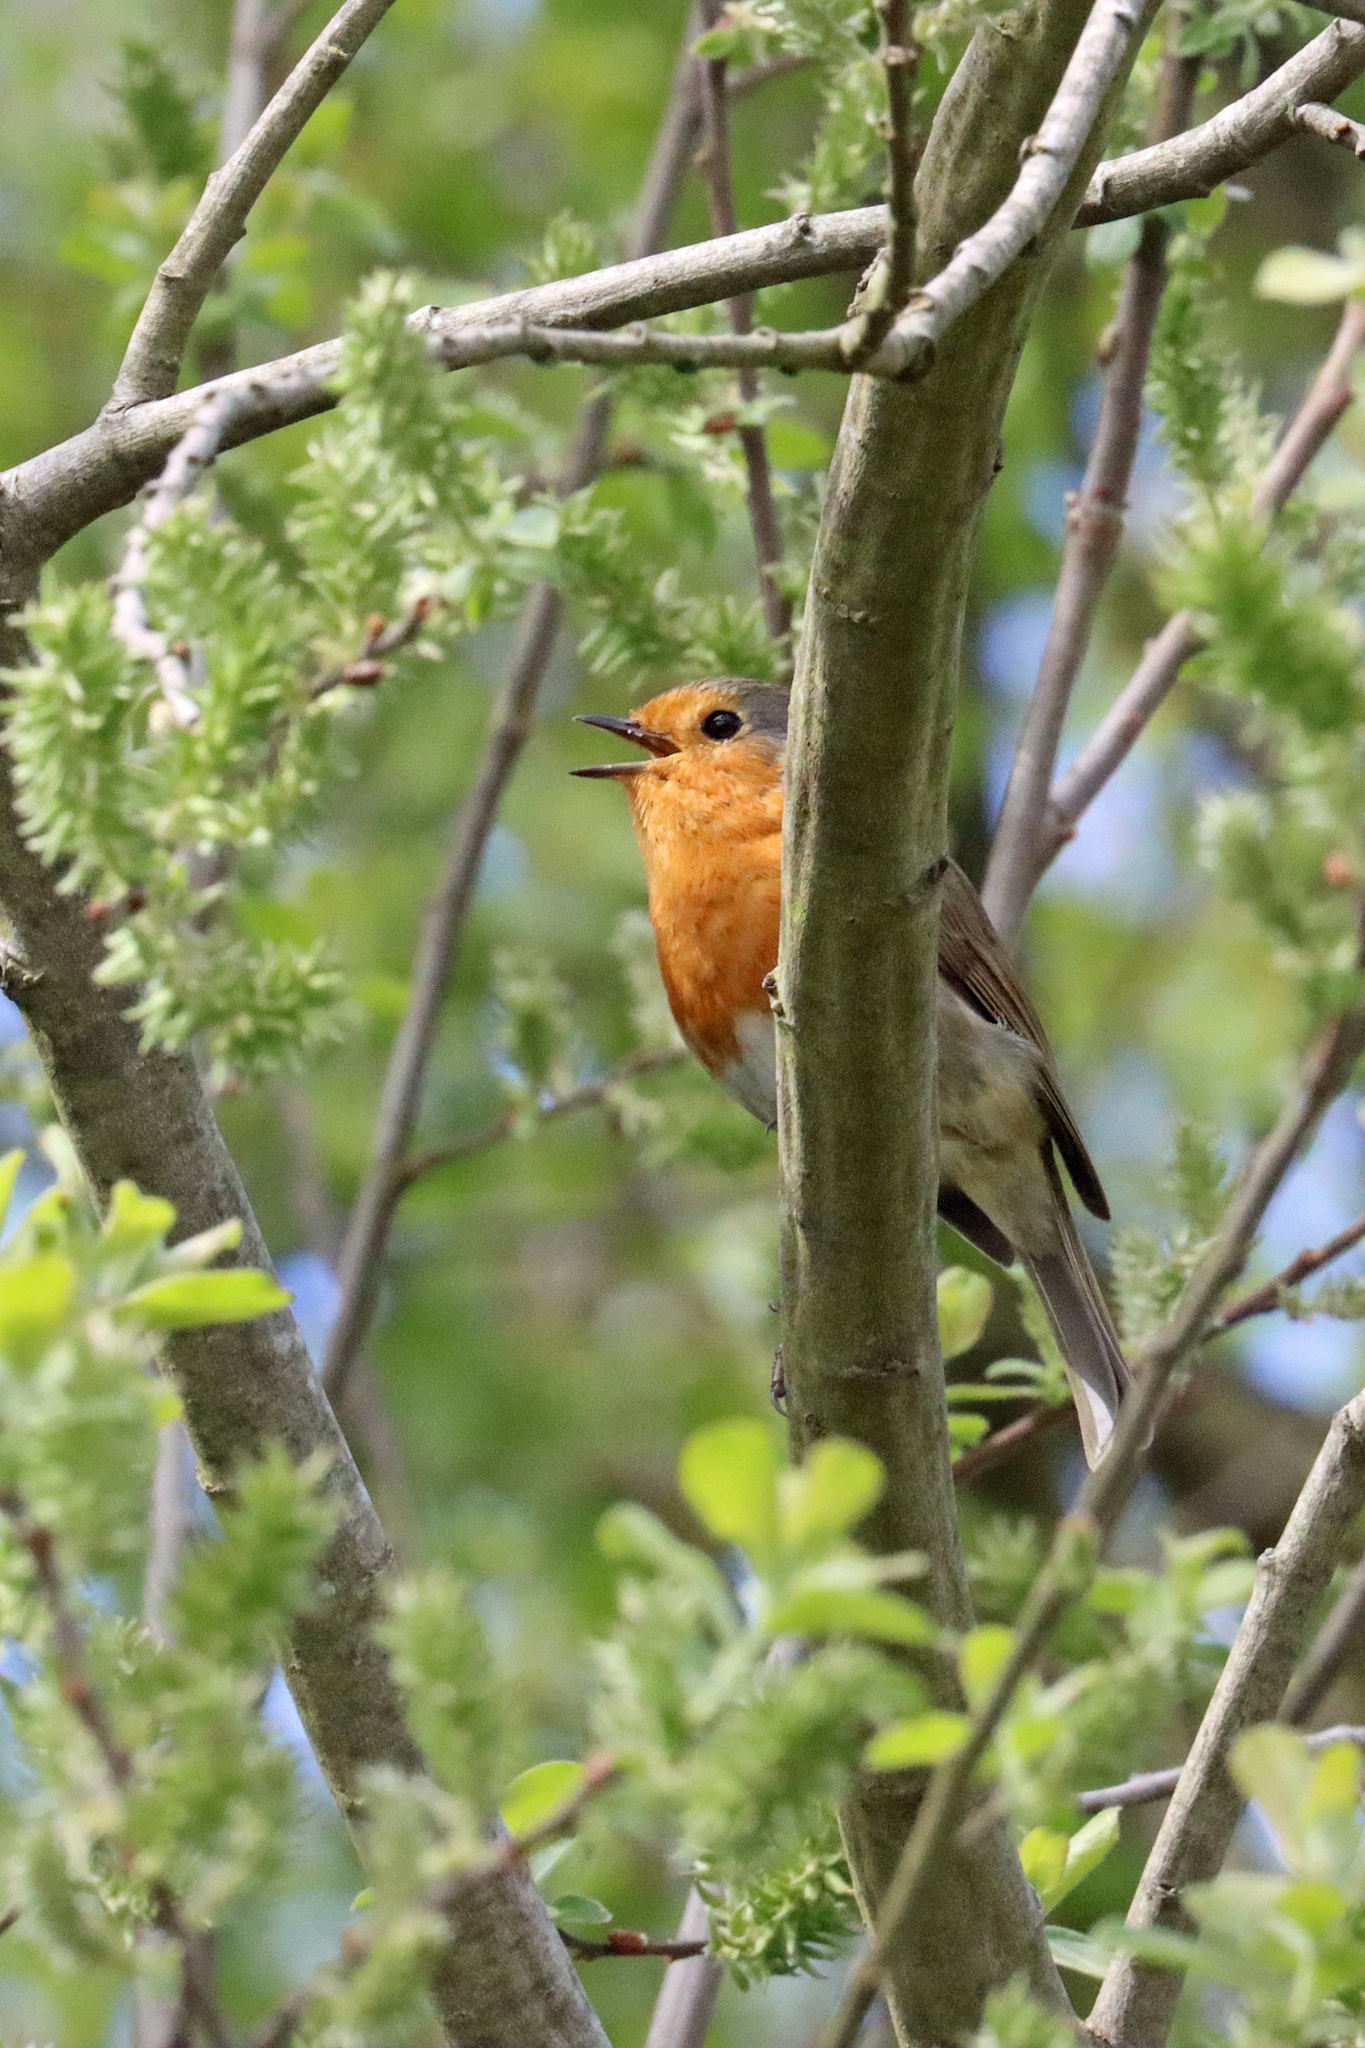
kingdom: Animalia
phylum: Chordata
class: Aves
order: Passeriformes
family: Muscicapidae
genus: Erithacus
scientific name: Erithacus rubecula
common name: European robin
